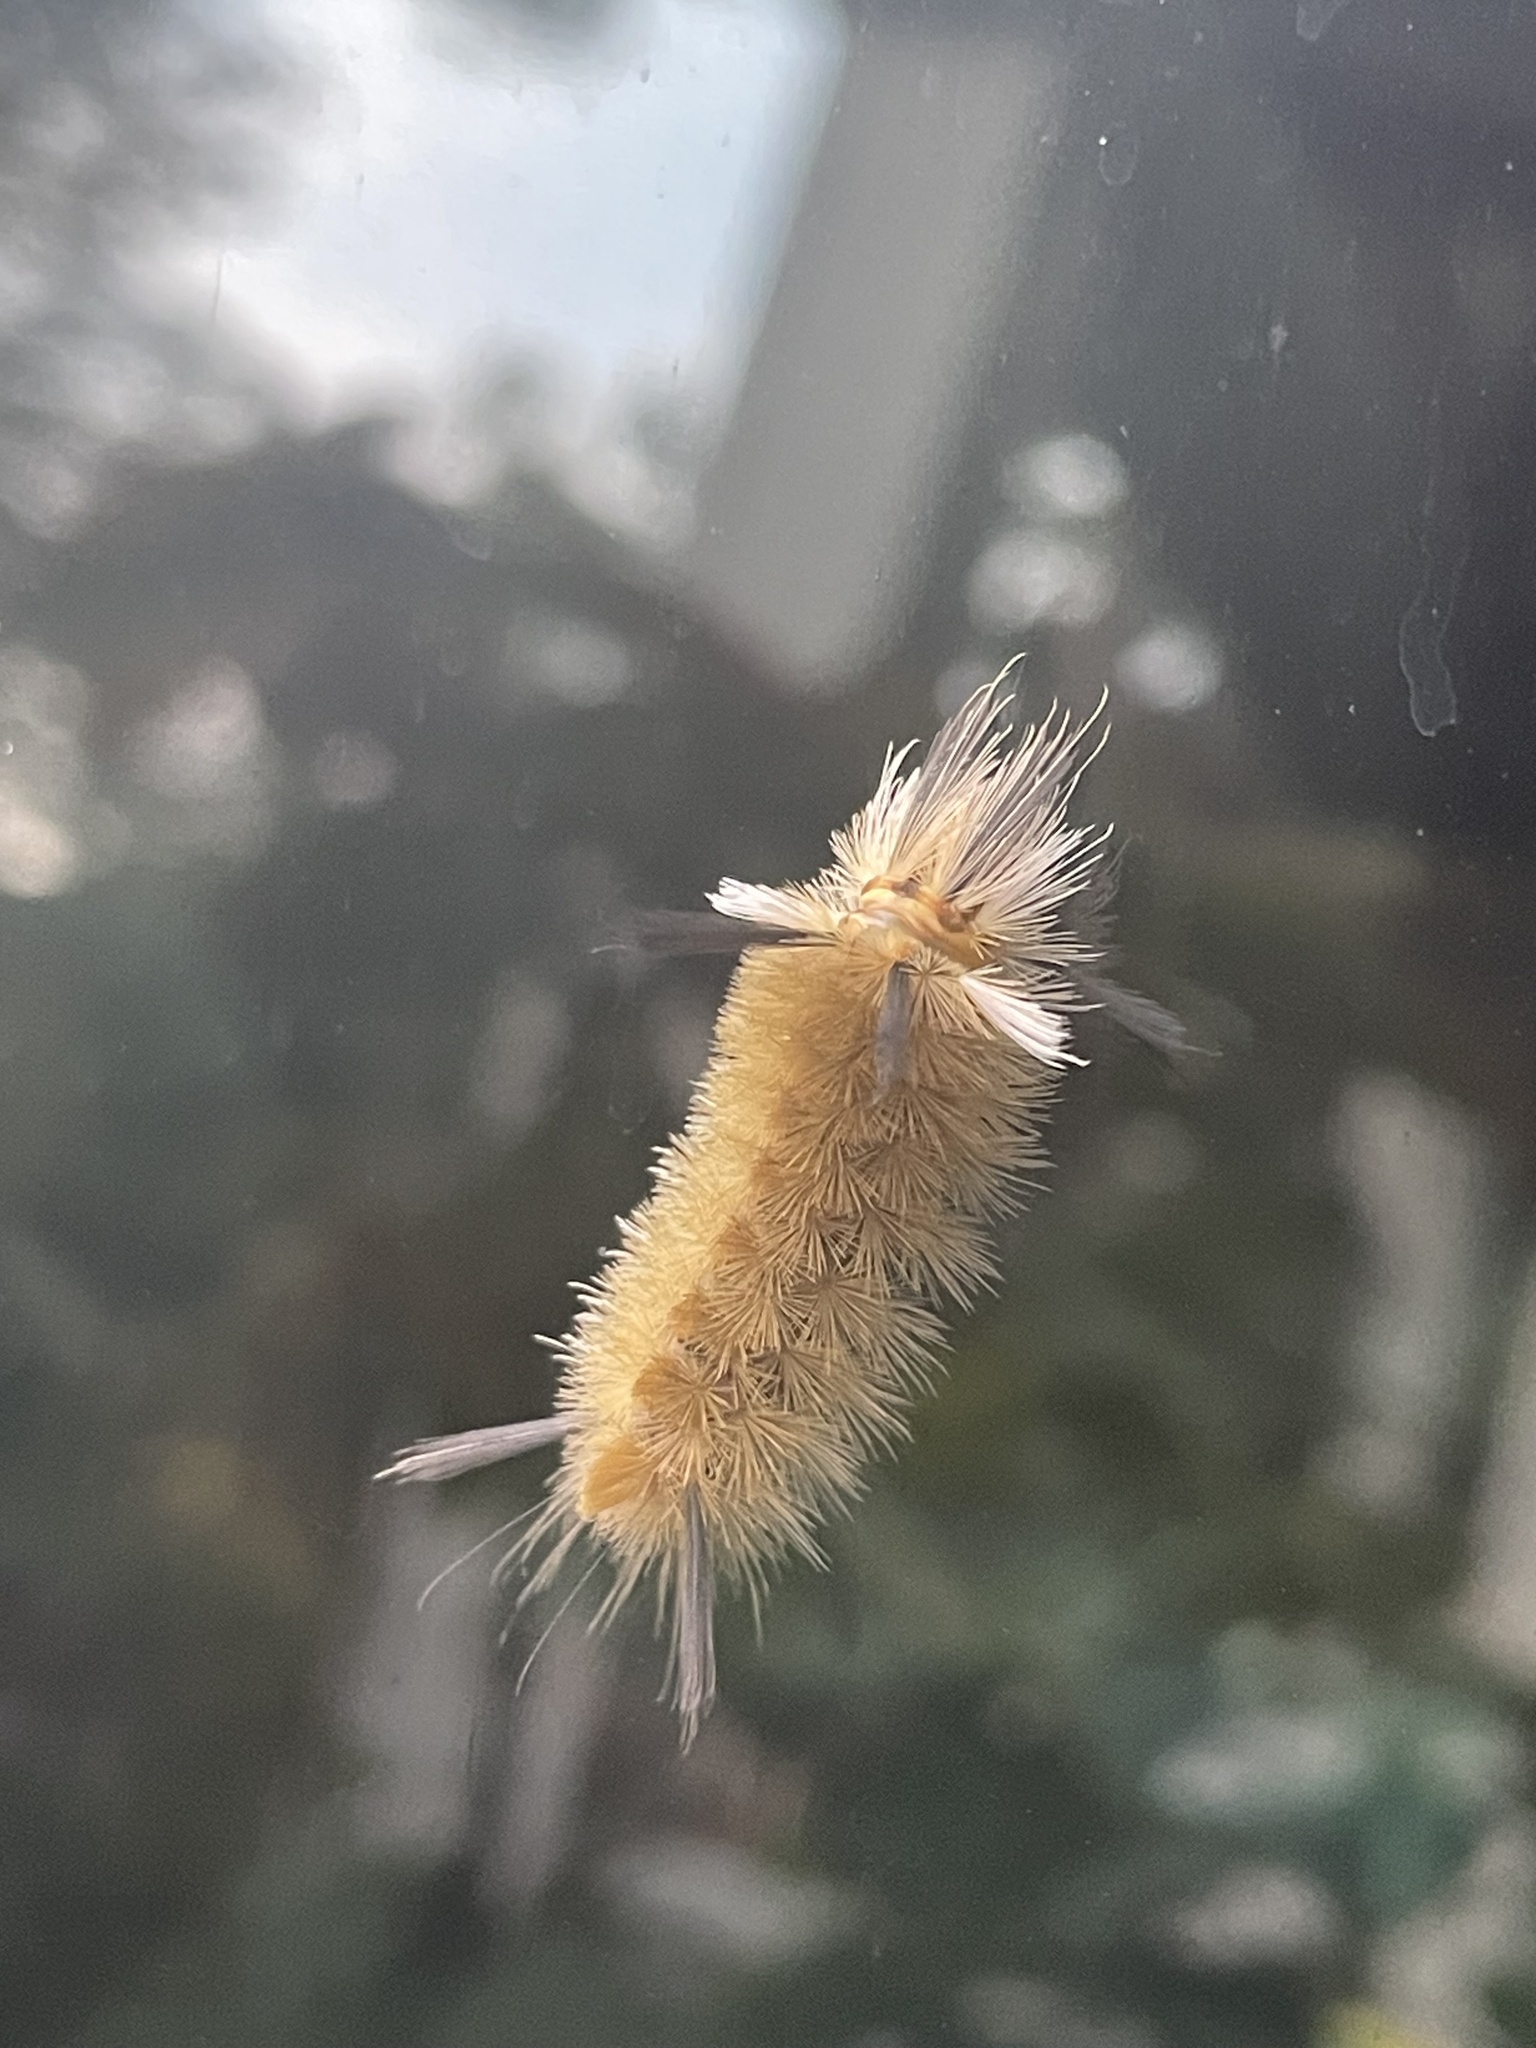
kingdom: Animalia
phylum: Arthropoda
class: Insecta
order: Lepidoptera
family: Erebidae
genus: Halysidota
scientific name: Halysidota tessellaris
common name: Banded tussock moth
